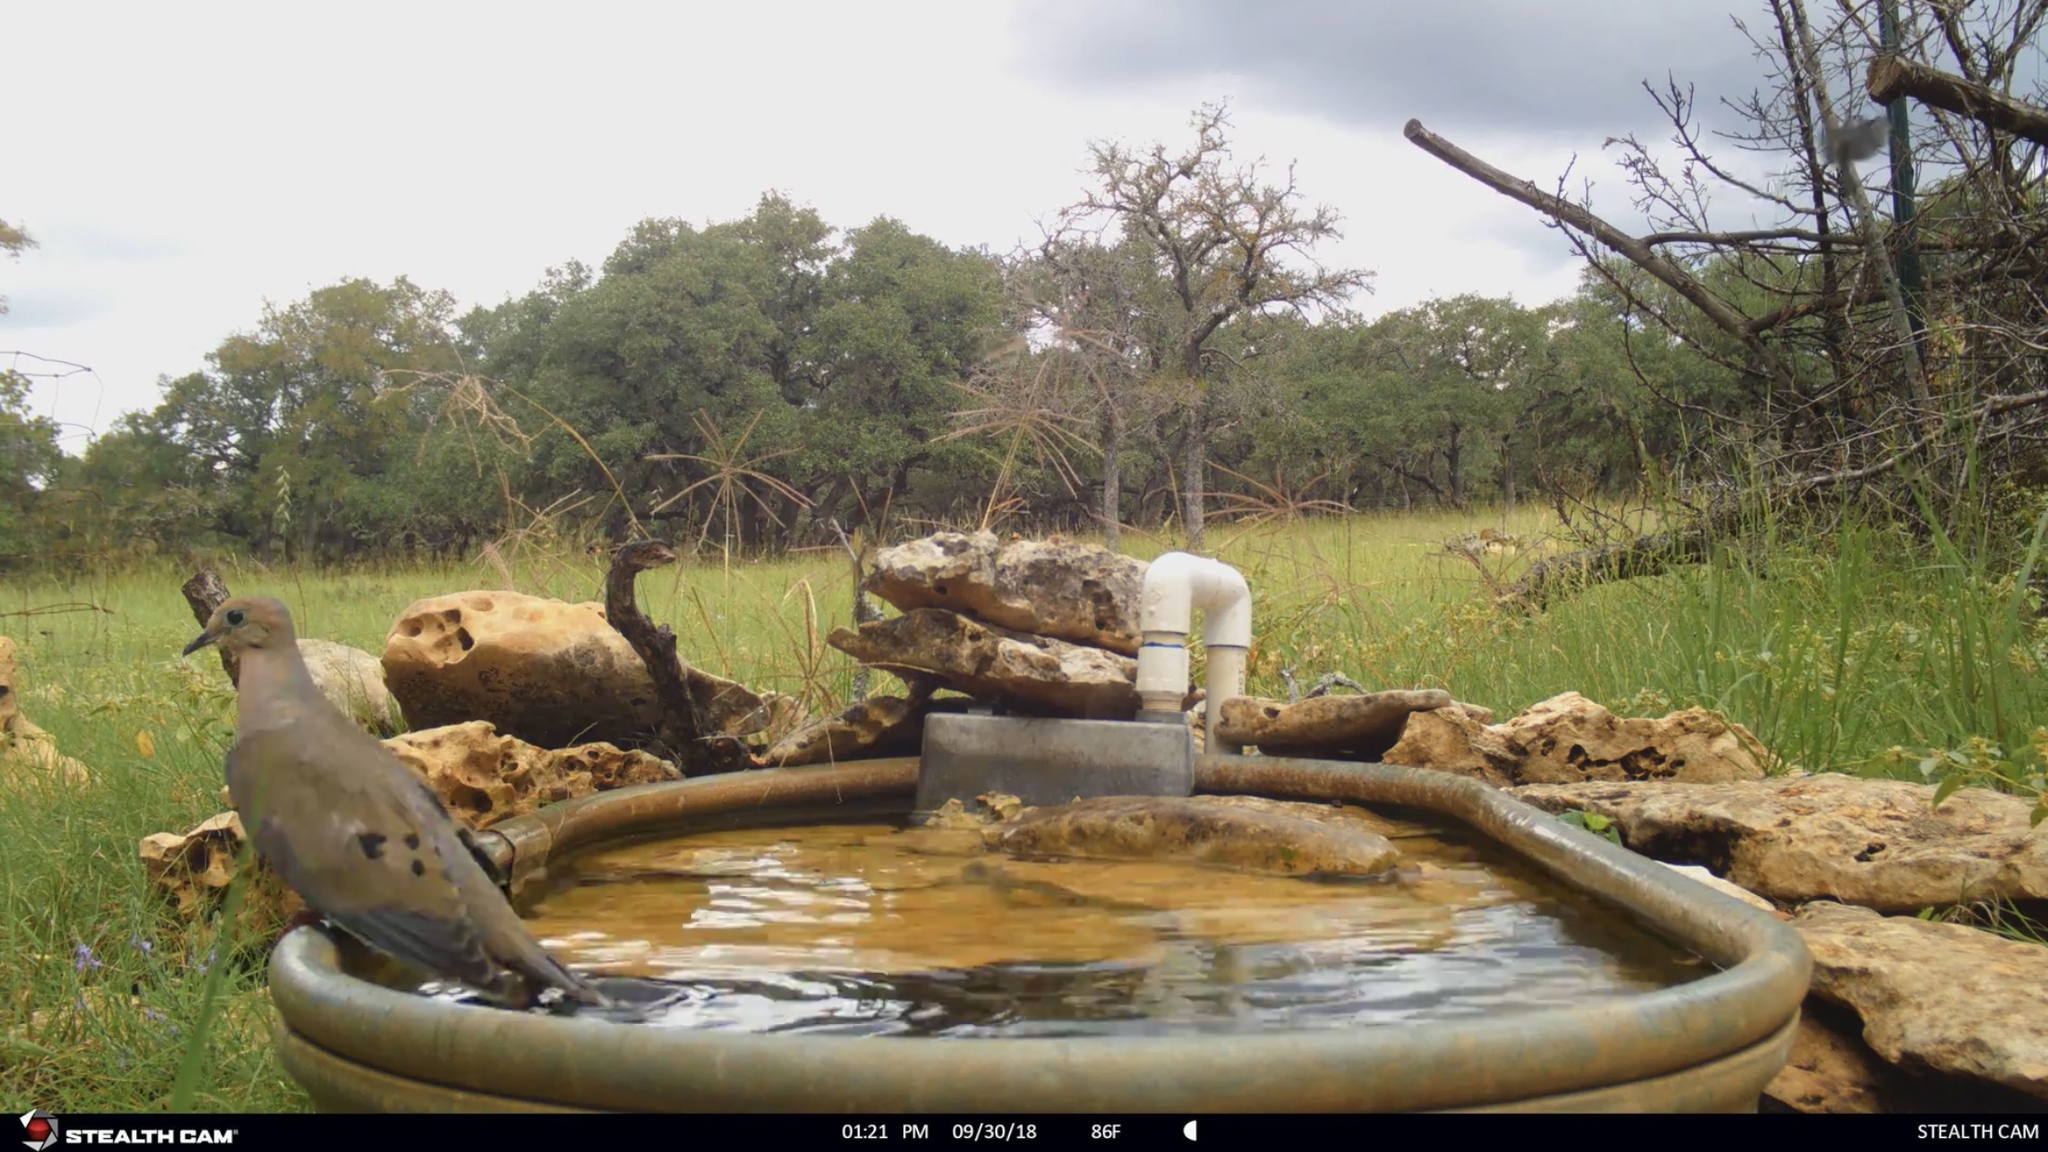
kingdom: Animalia
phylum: Chordata
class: Aves
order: Columbiformes
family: Columbidae
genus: Zenaida
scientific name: Zenaida macroura
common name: Mourning dove
